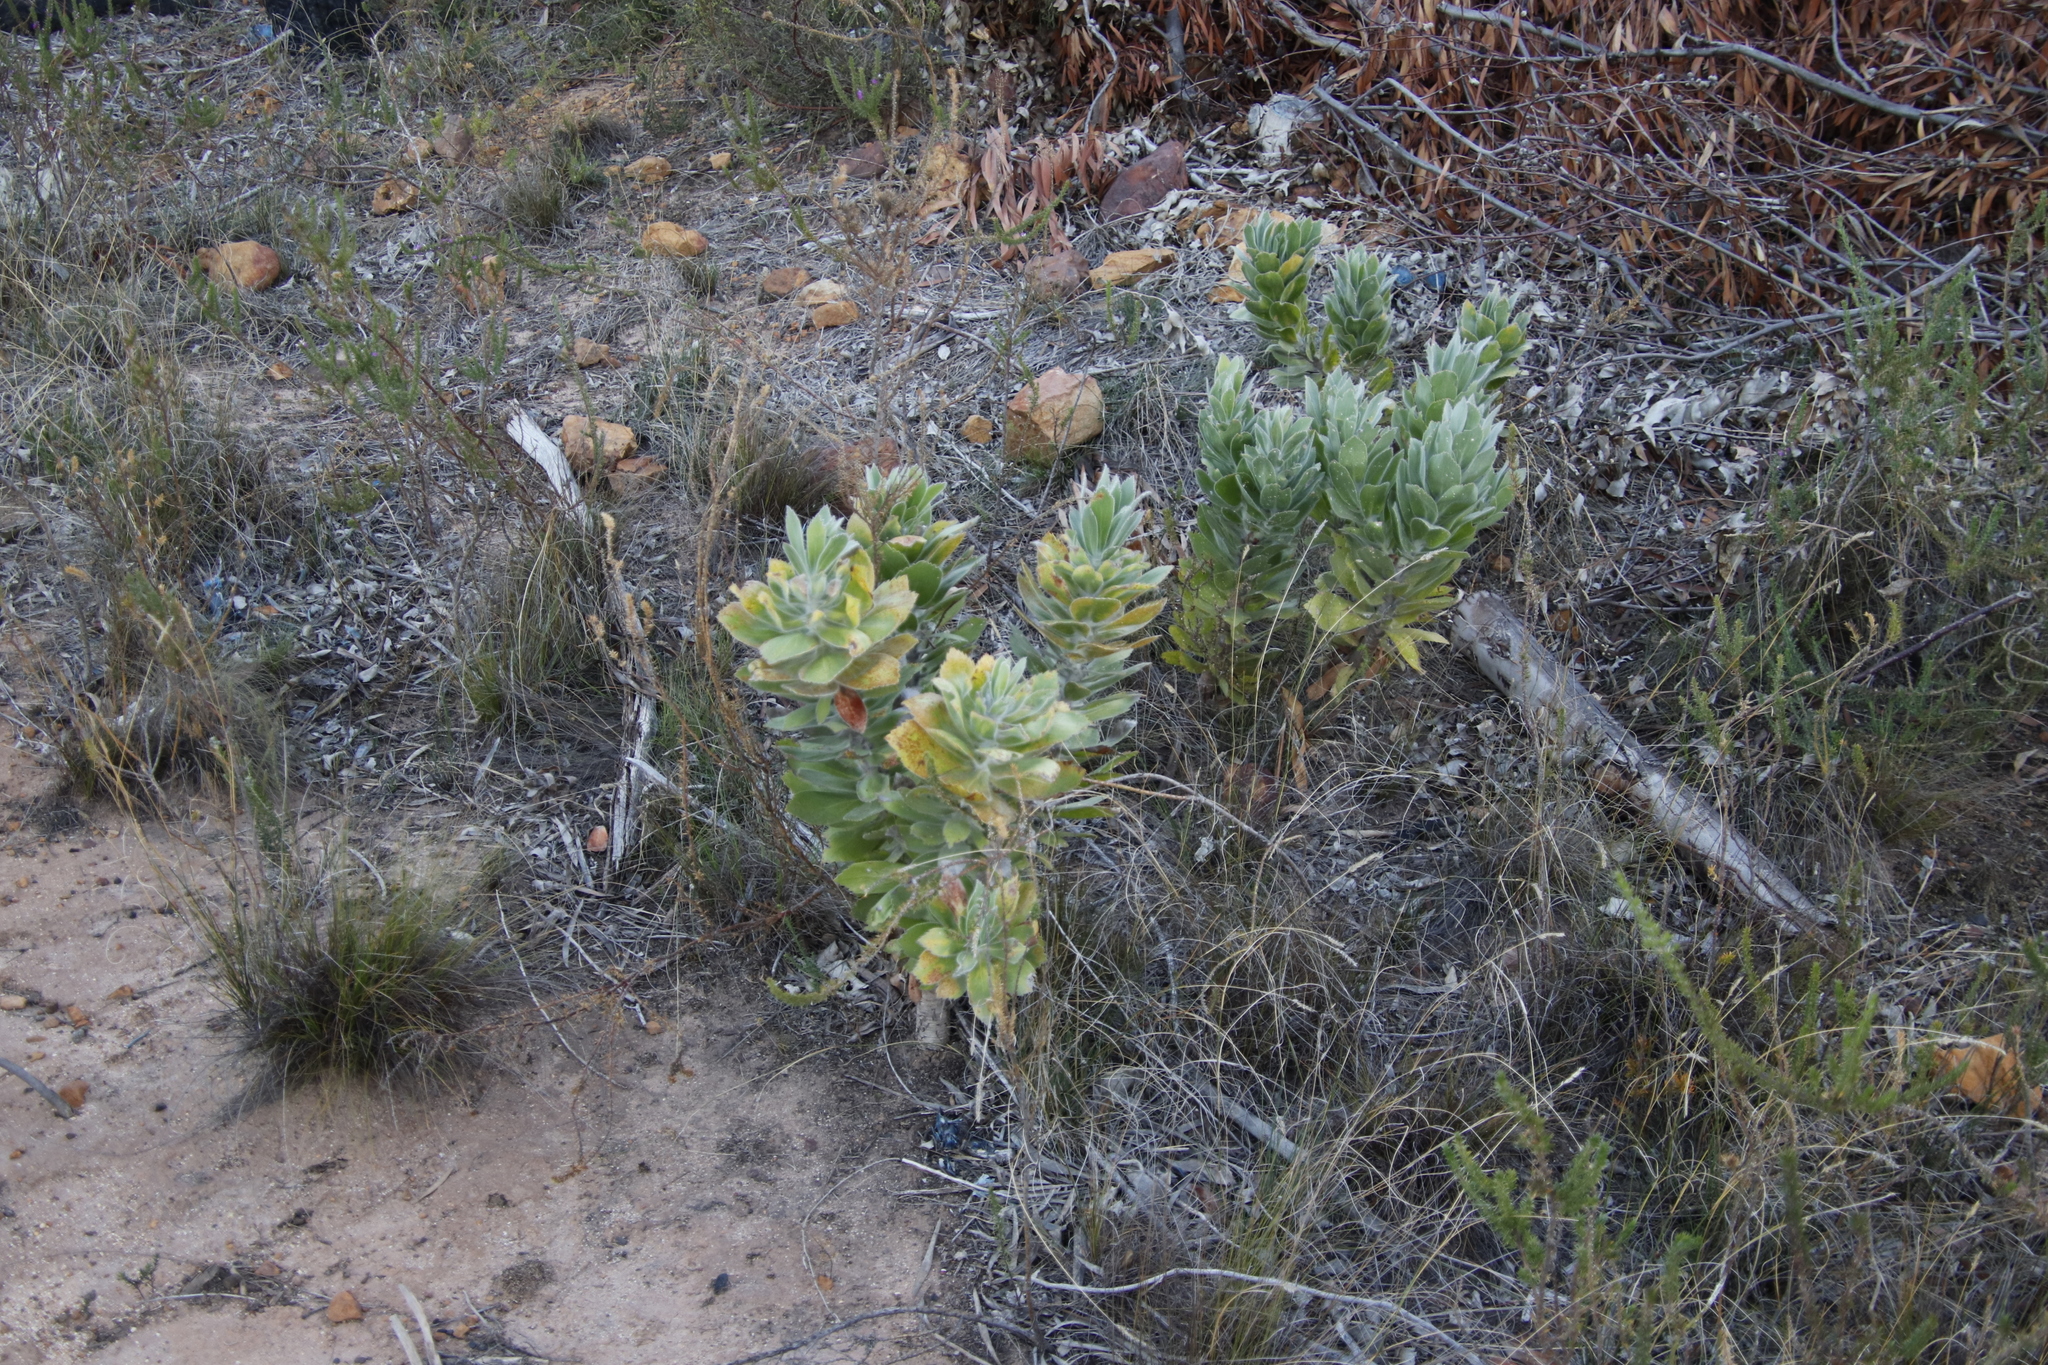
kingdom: Plantae
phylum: Tracheophyta
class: Magnoliopsida
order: Proteales
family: Proteaceae
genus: Leucospermum
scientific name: Leucospermum conocarpodendron
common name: Tree pincushion
